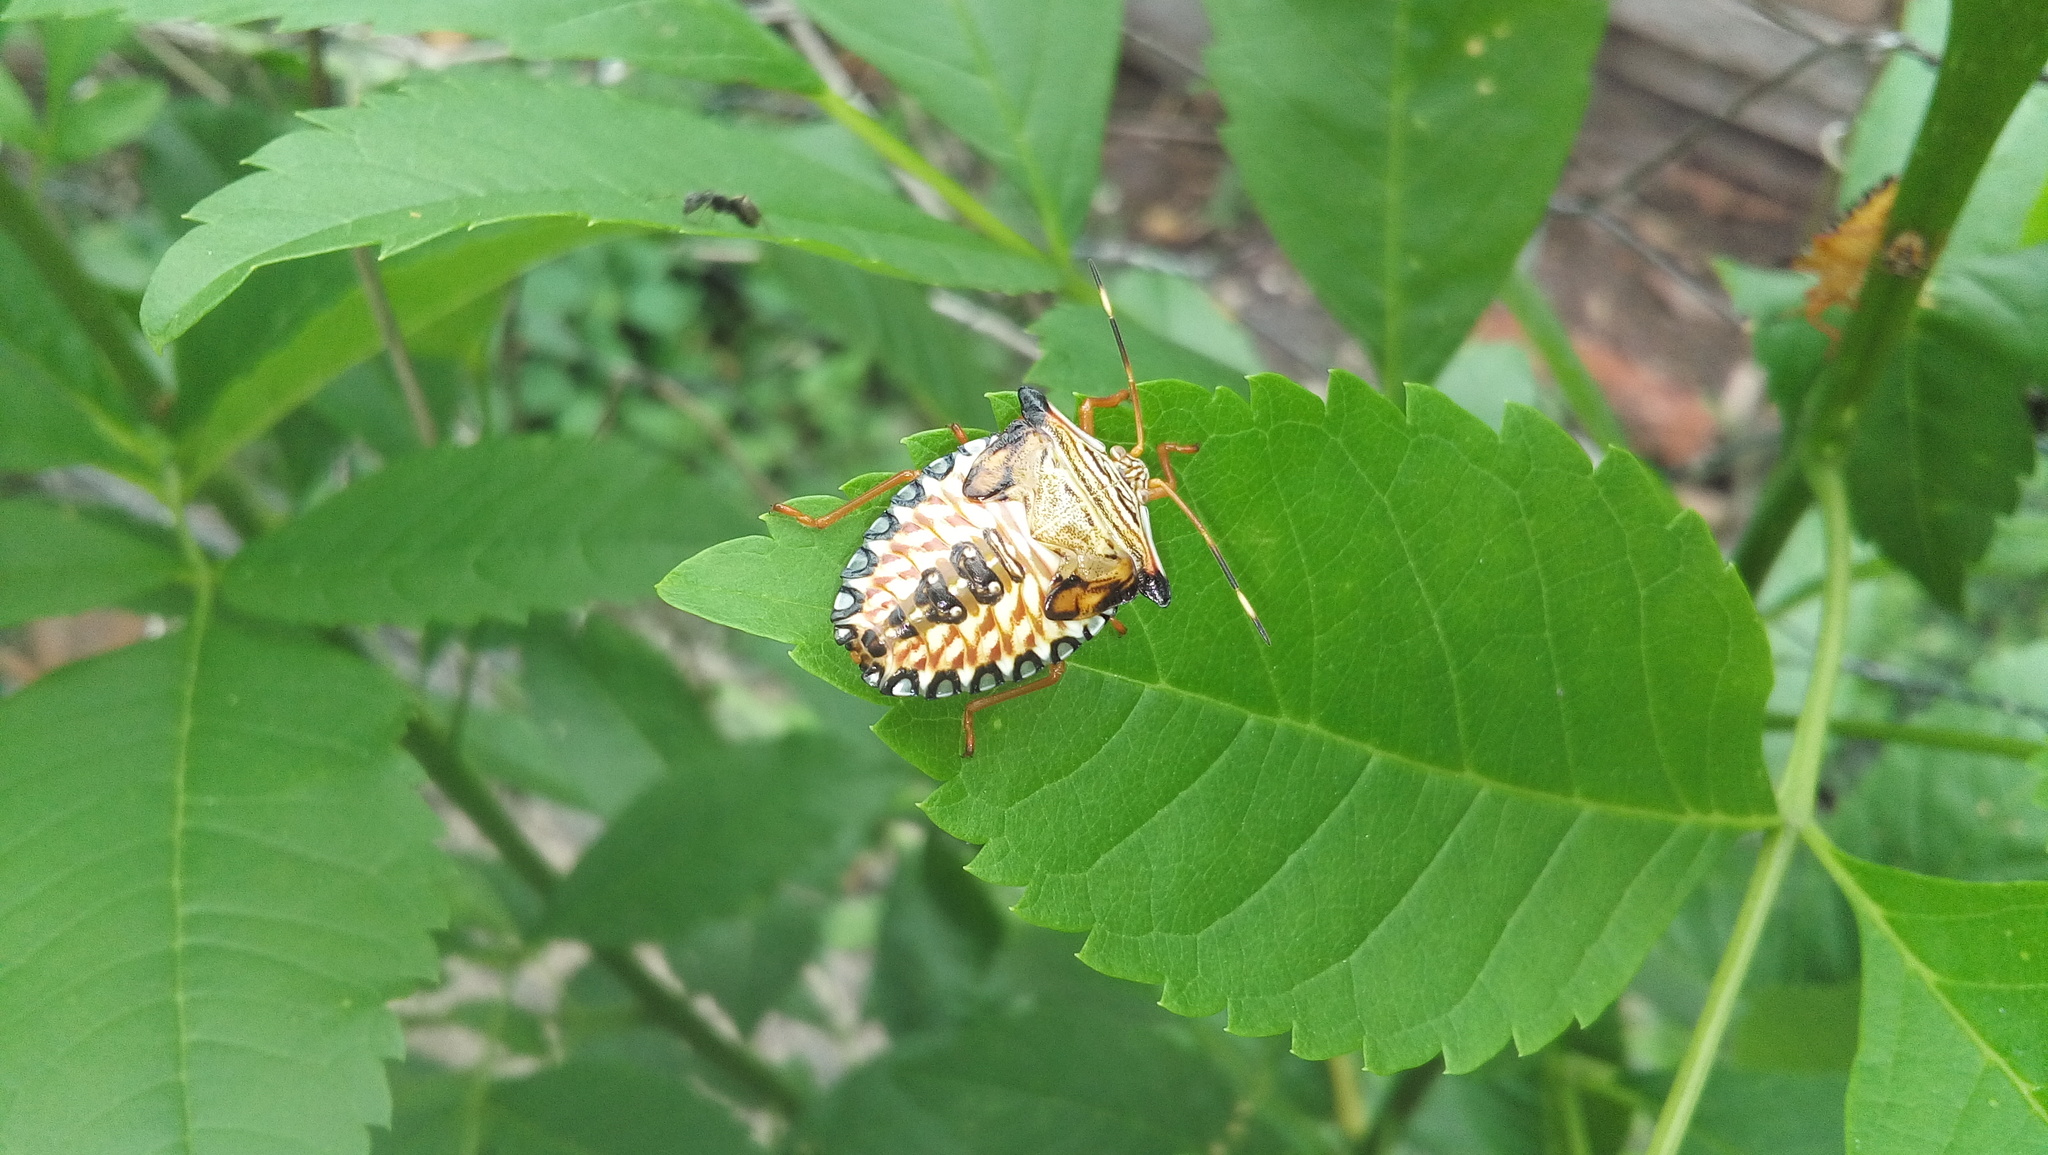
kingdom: Animalia
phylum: Arthropoda
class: Insecta
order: Hemiptera
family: Pentatomidae
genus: Edessa
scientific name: Edessa reticulata
